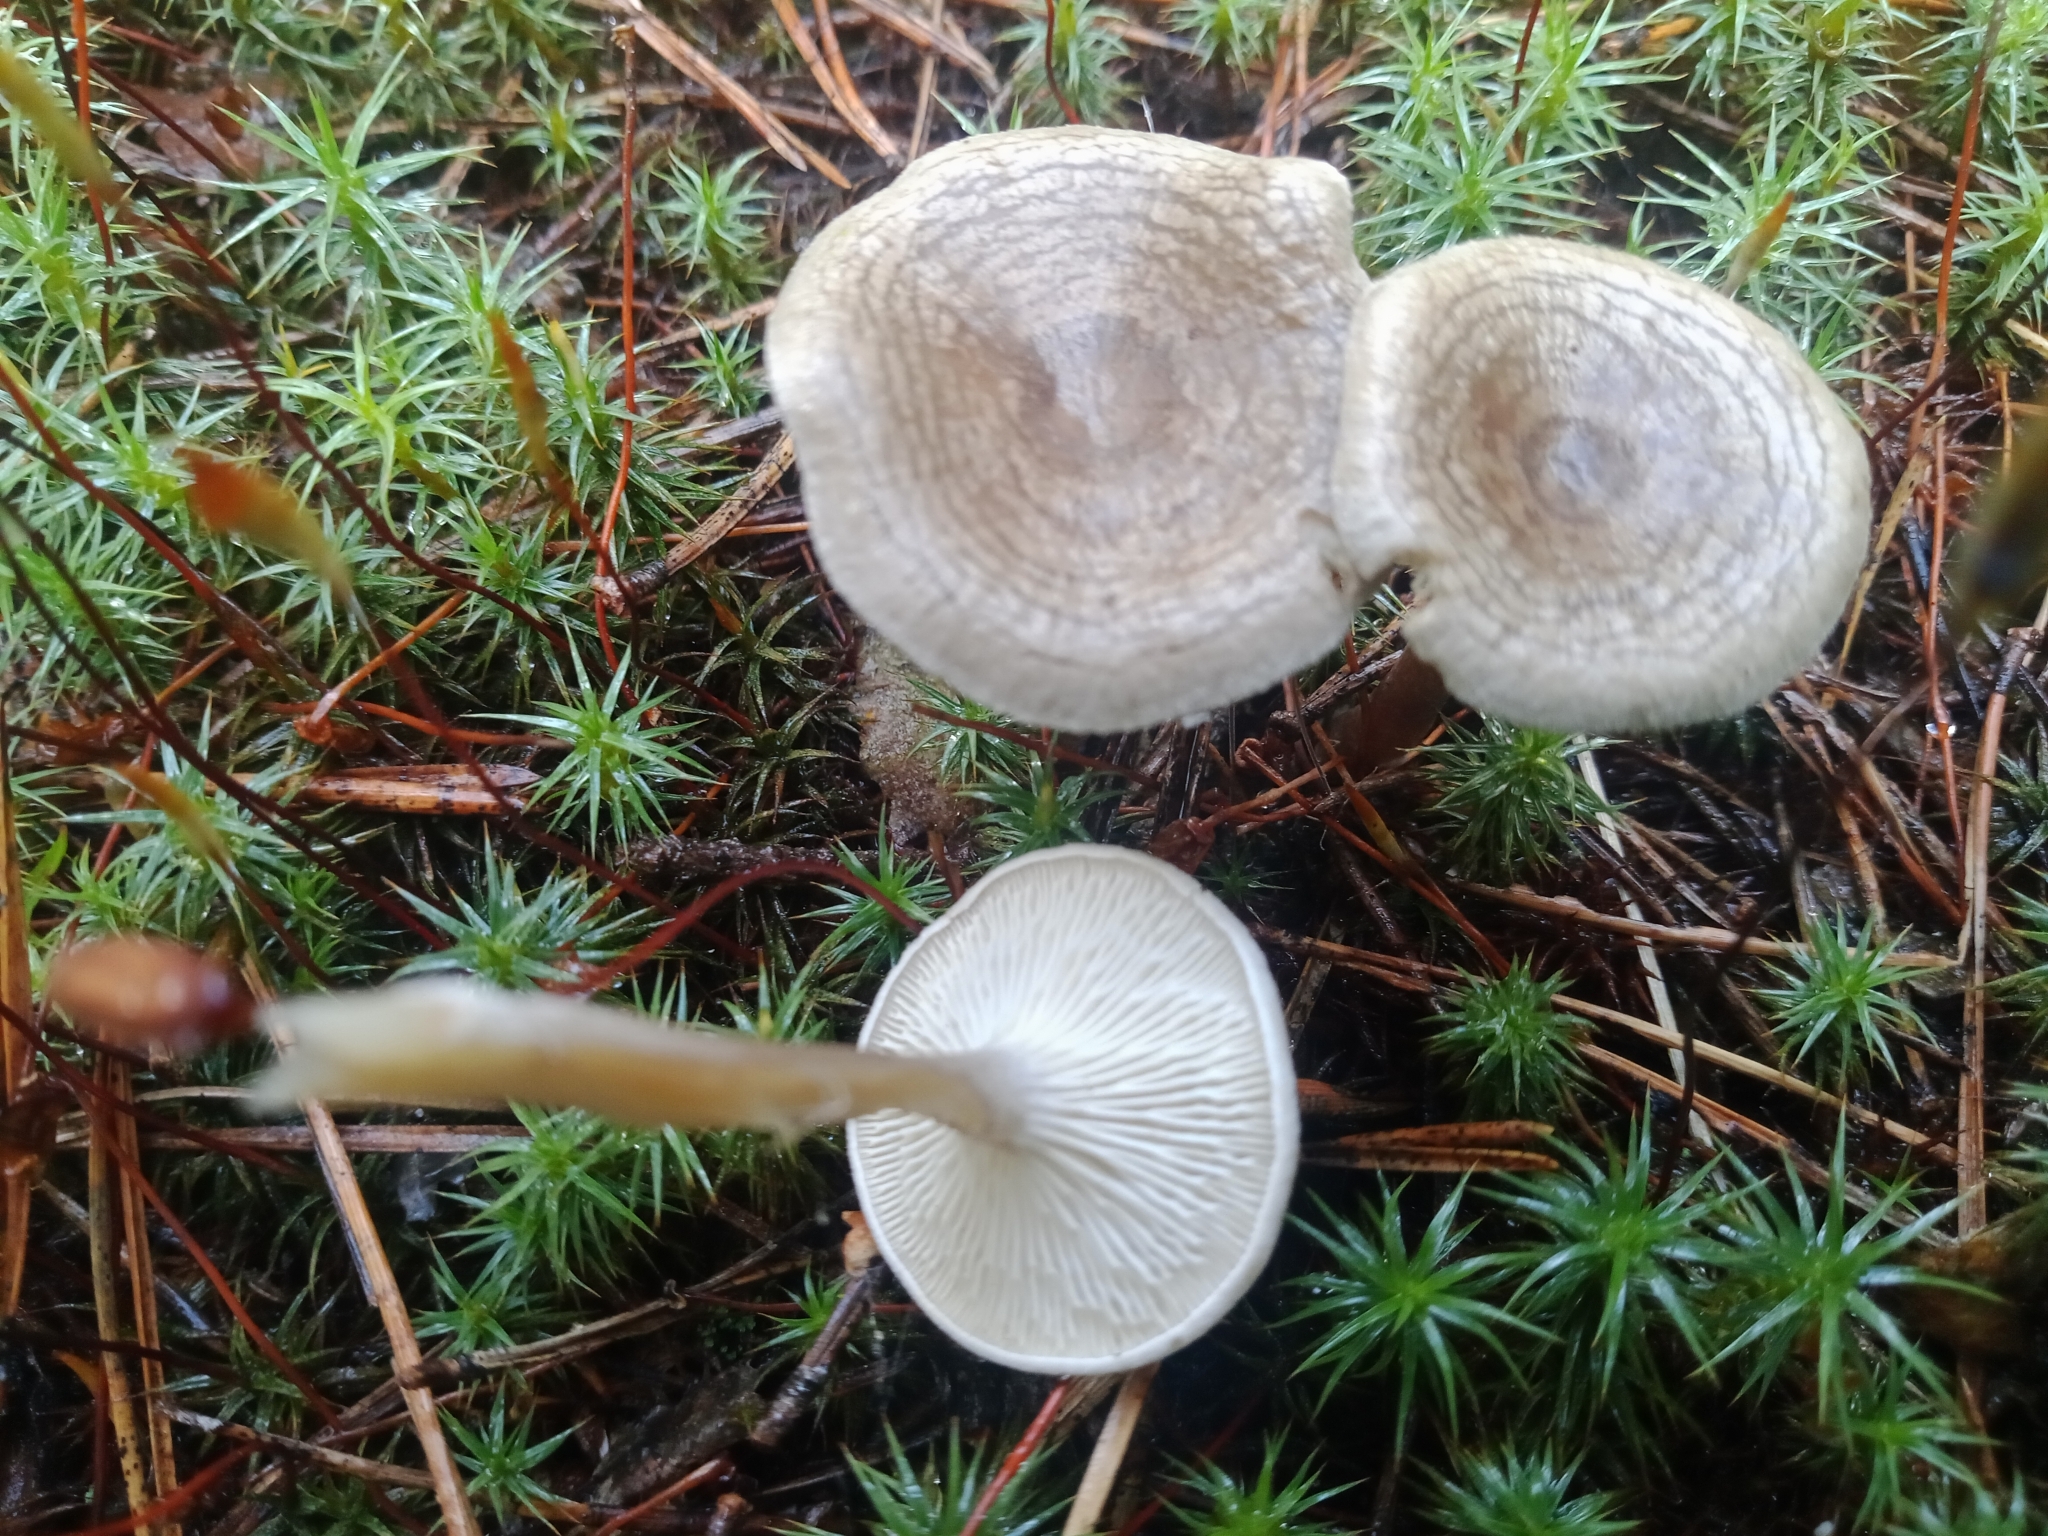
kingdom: Fungi
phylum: Basidiomycota
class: Agaricomycetes
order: Agaricales
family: Hygrophoraceae
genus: Cantharellula
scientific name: Cantharellula umbonata
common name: The humpback
